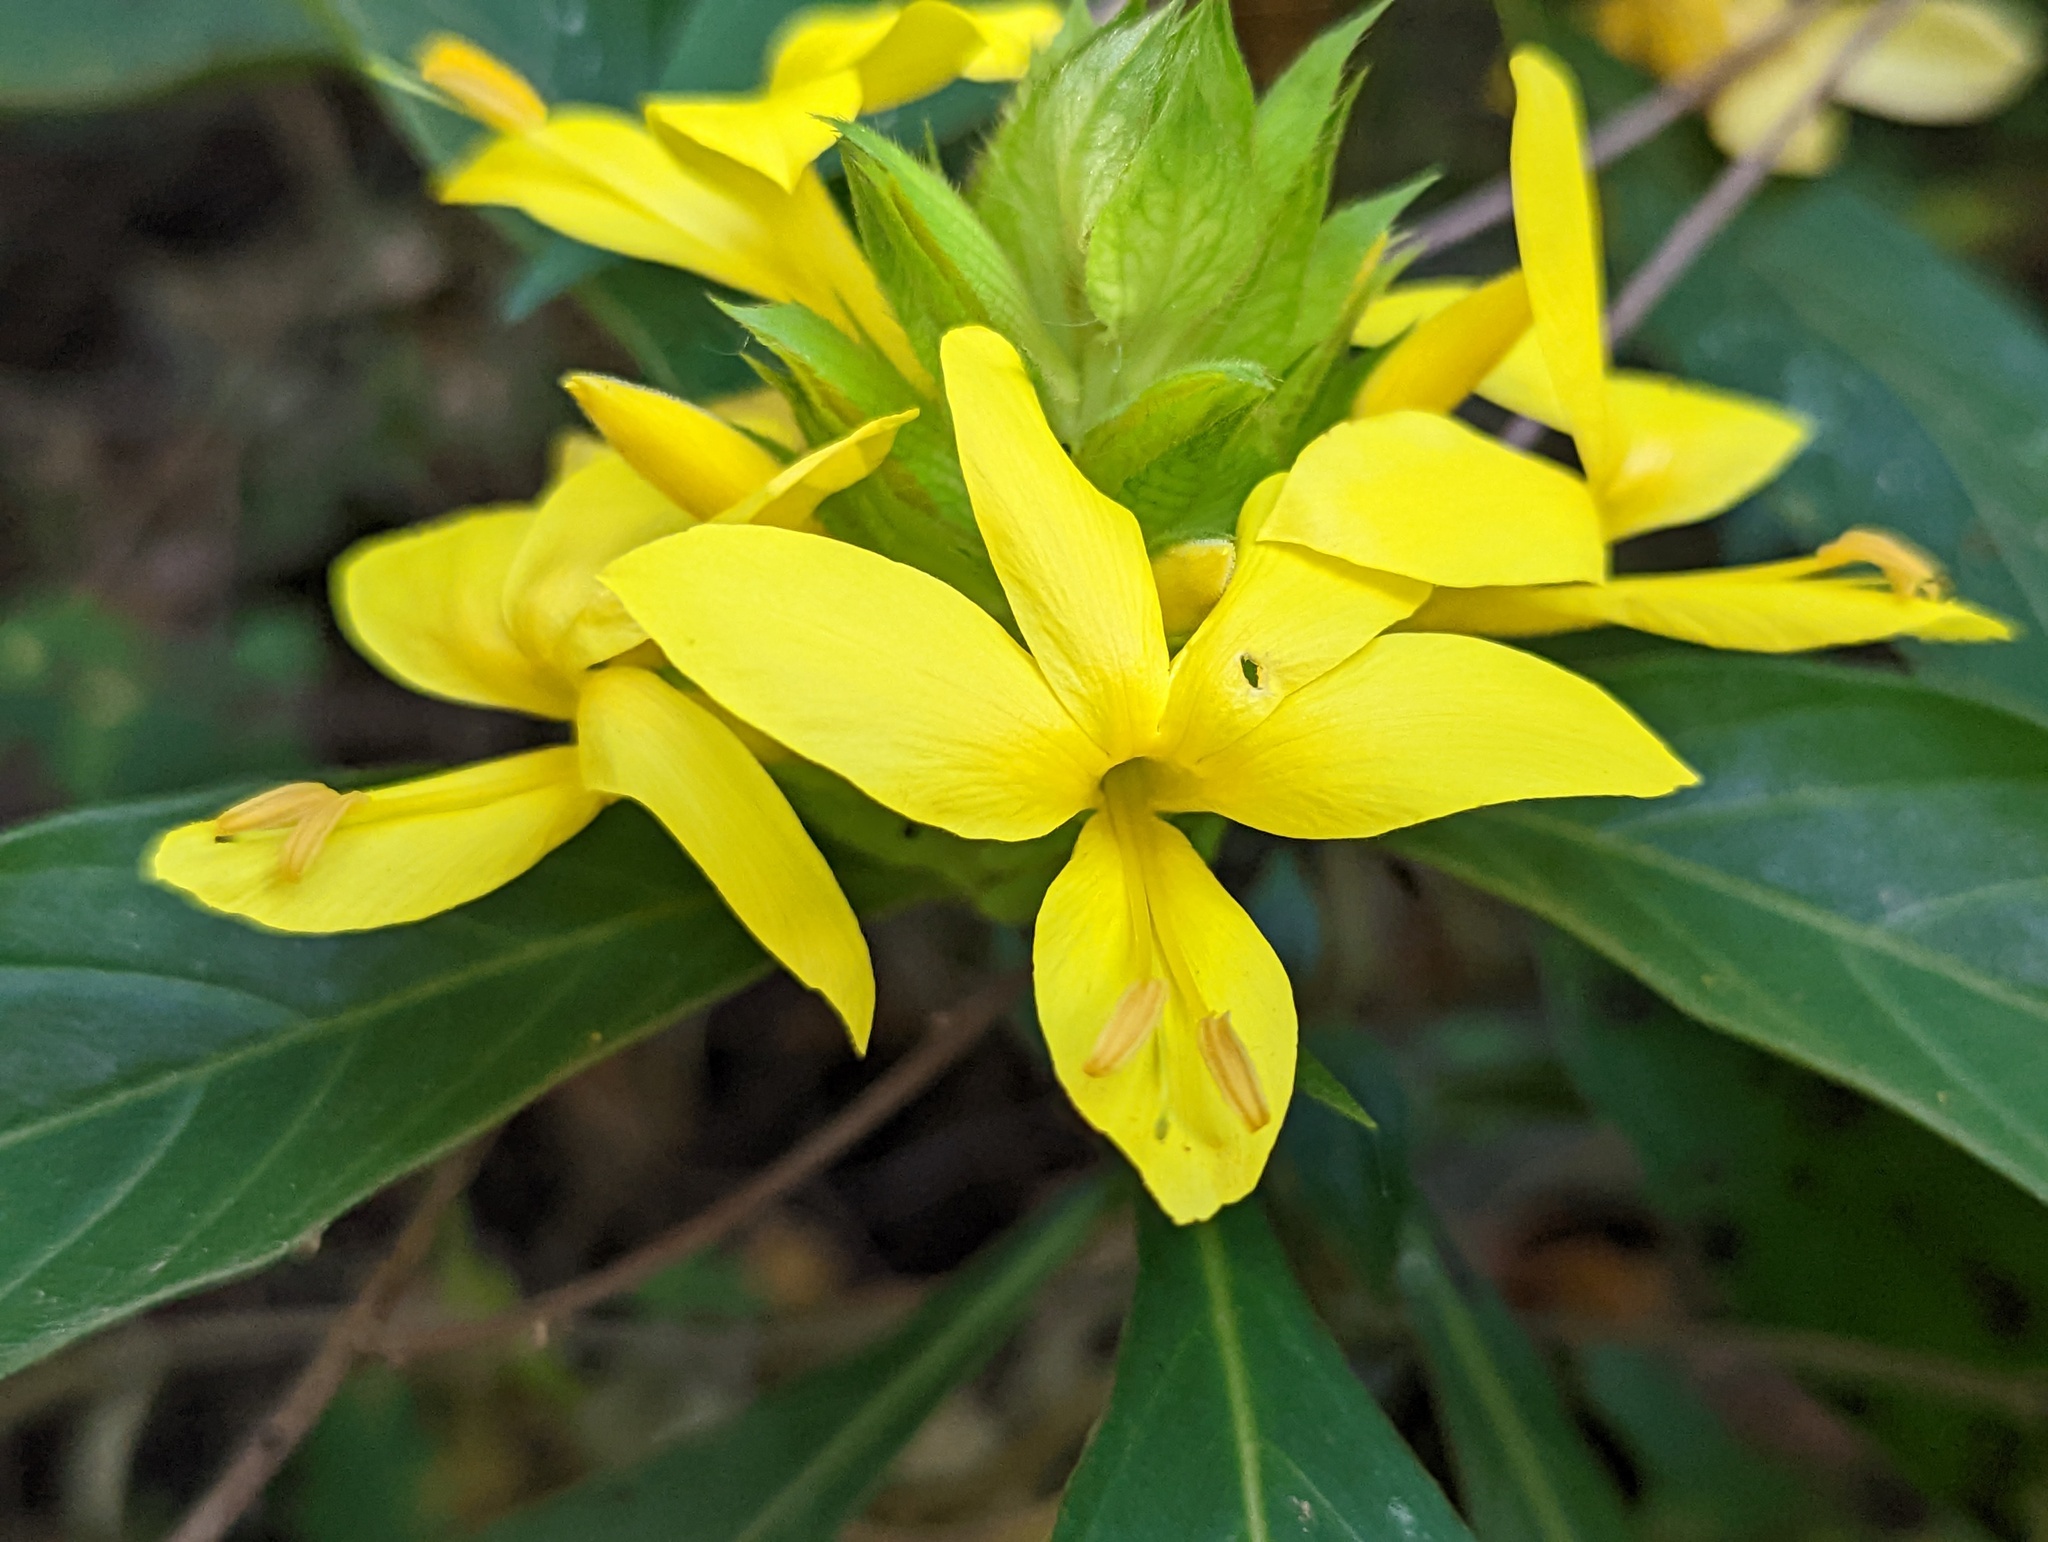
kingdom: Plantae
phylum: Tracheophyta
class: Magnoliopsida
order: Lamiales
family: Acanthaceae
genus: Barleria
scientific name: Barleria oenotheroides
